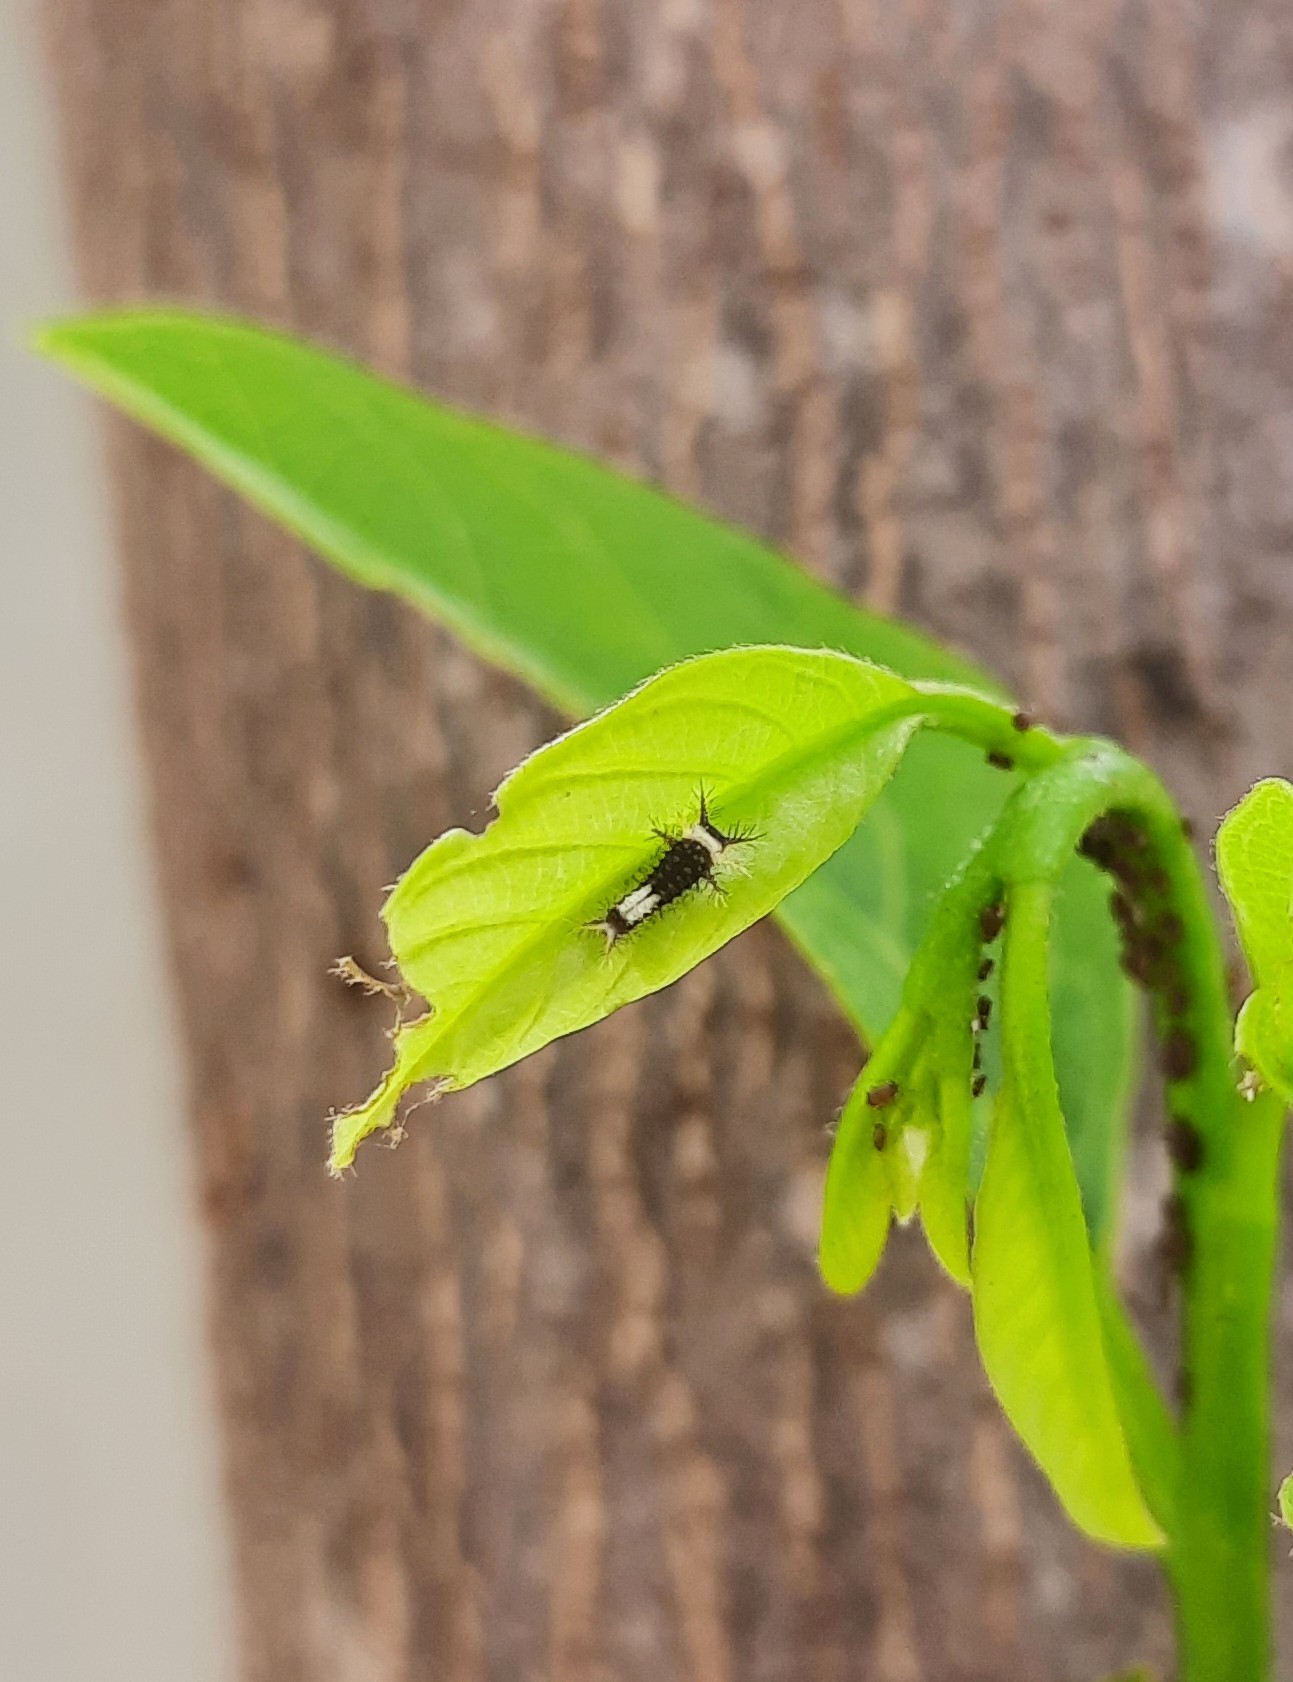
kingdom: Animalia
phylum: Arthropoda
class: Insecta
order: Lepidoptera
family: Papilionidae
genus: Graphium
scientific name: Graphium agamemnon
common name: Tailed jay
